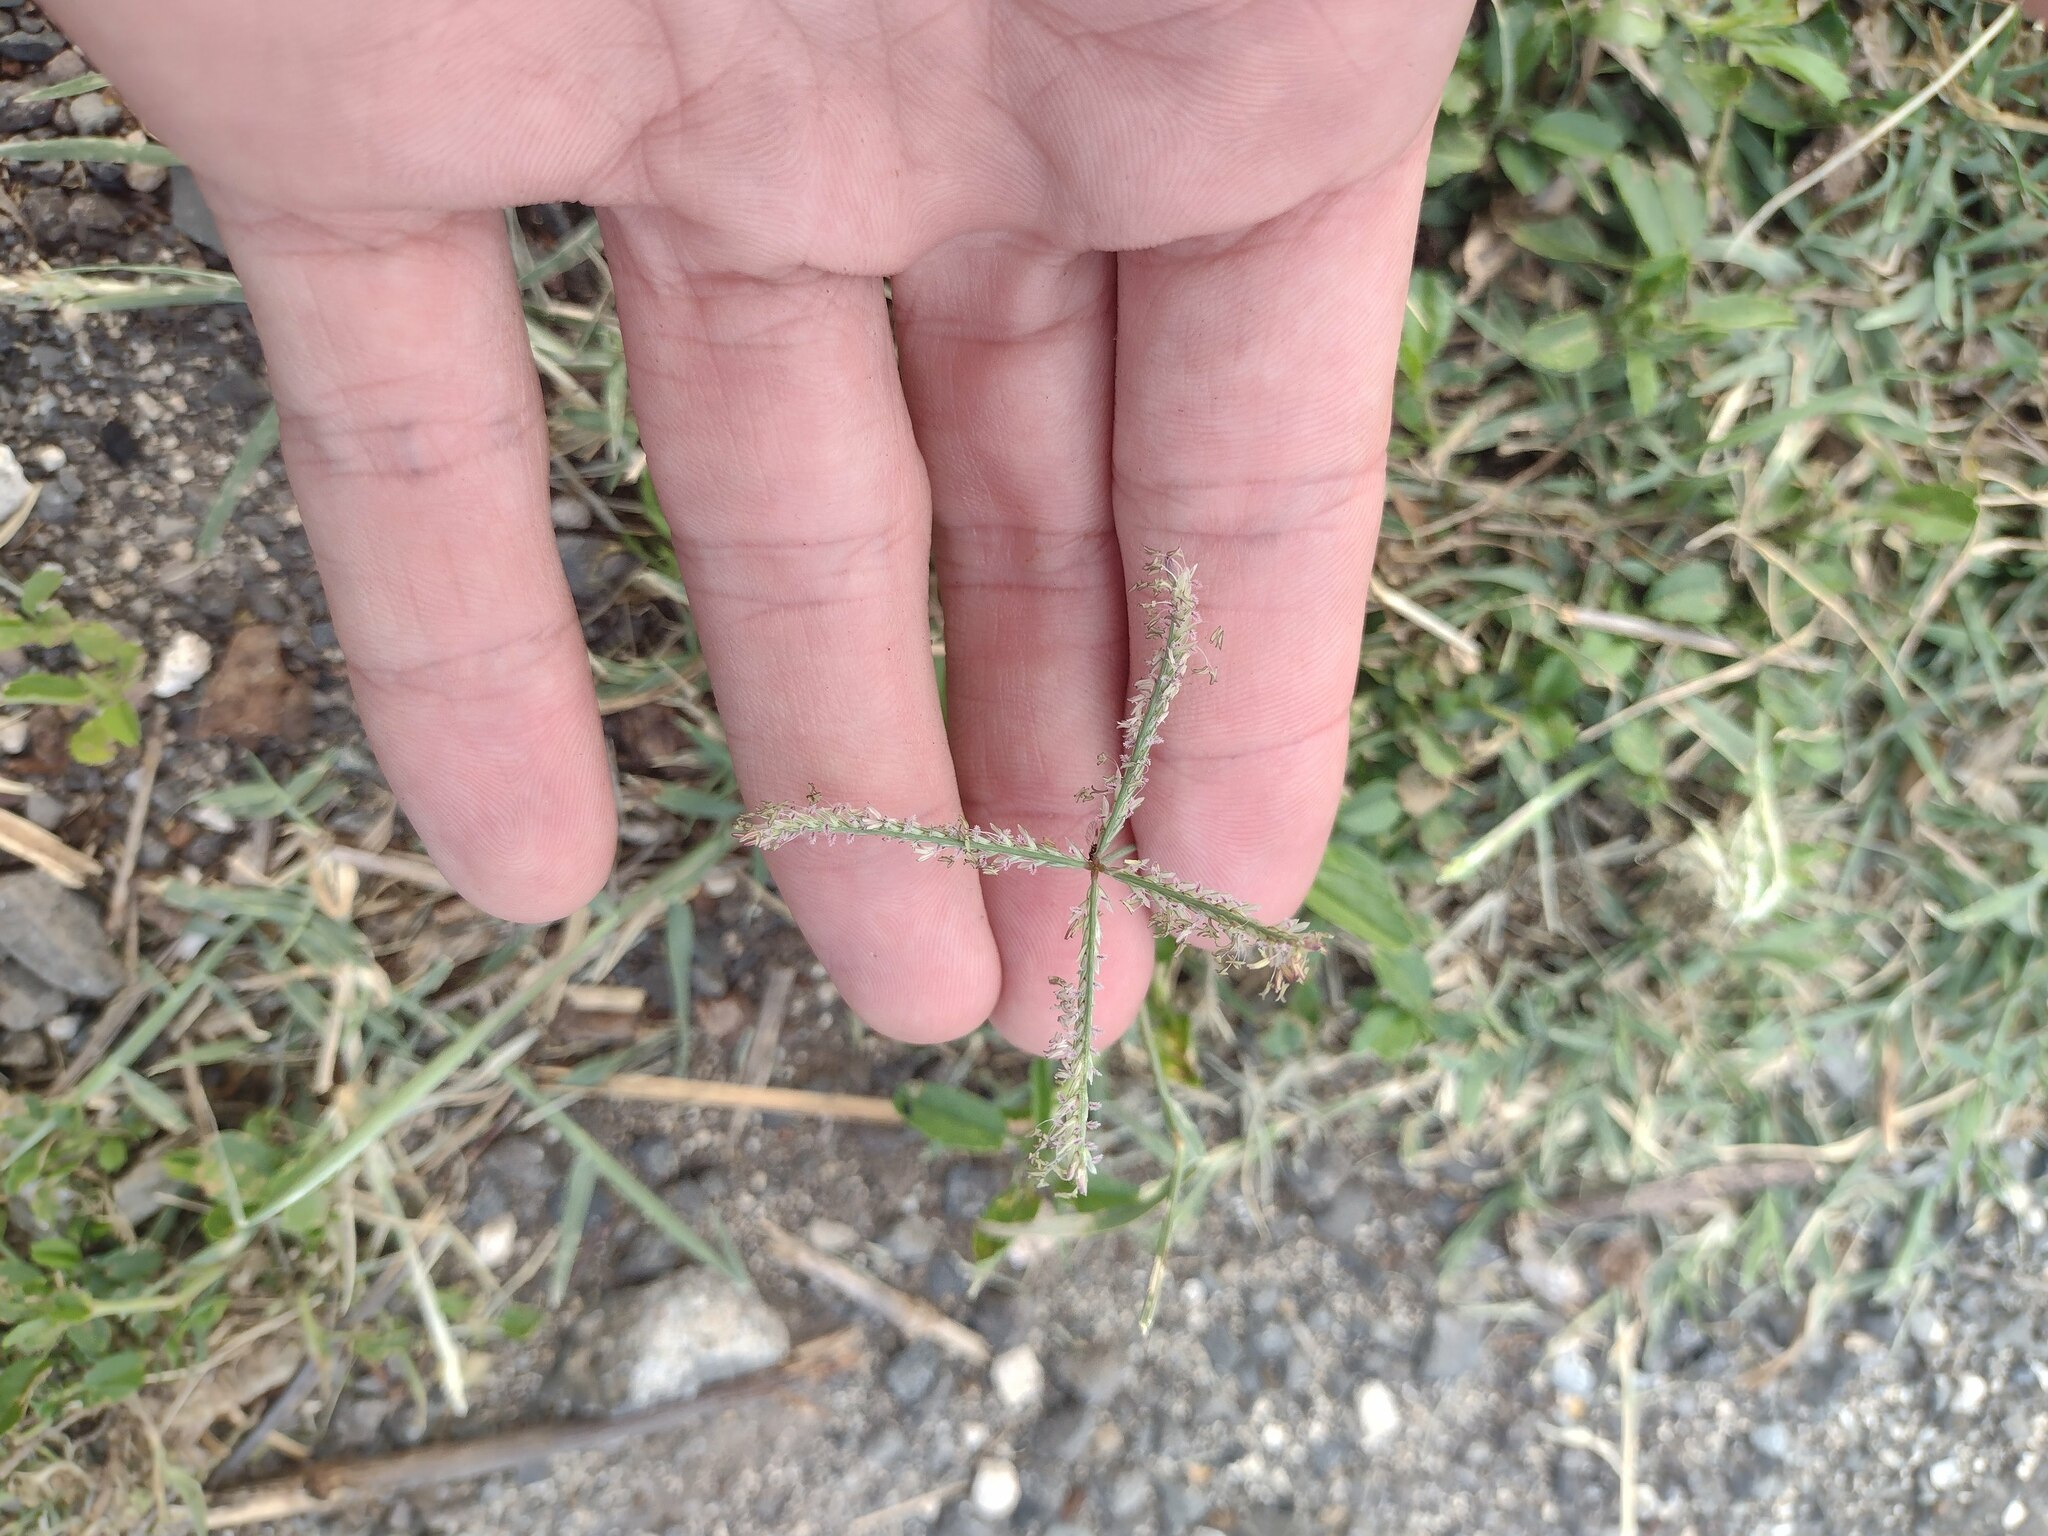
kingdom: Plantae
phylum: Tracheophyta
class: Liliopsida
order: Poales
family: Poaceae
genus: Cynodon
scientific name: Cynodon dactylon
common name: Bermuda grass
